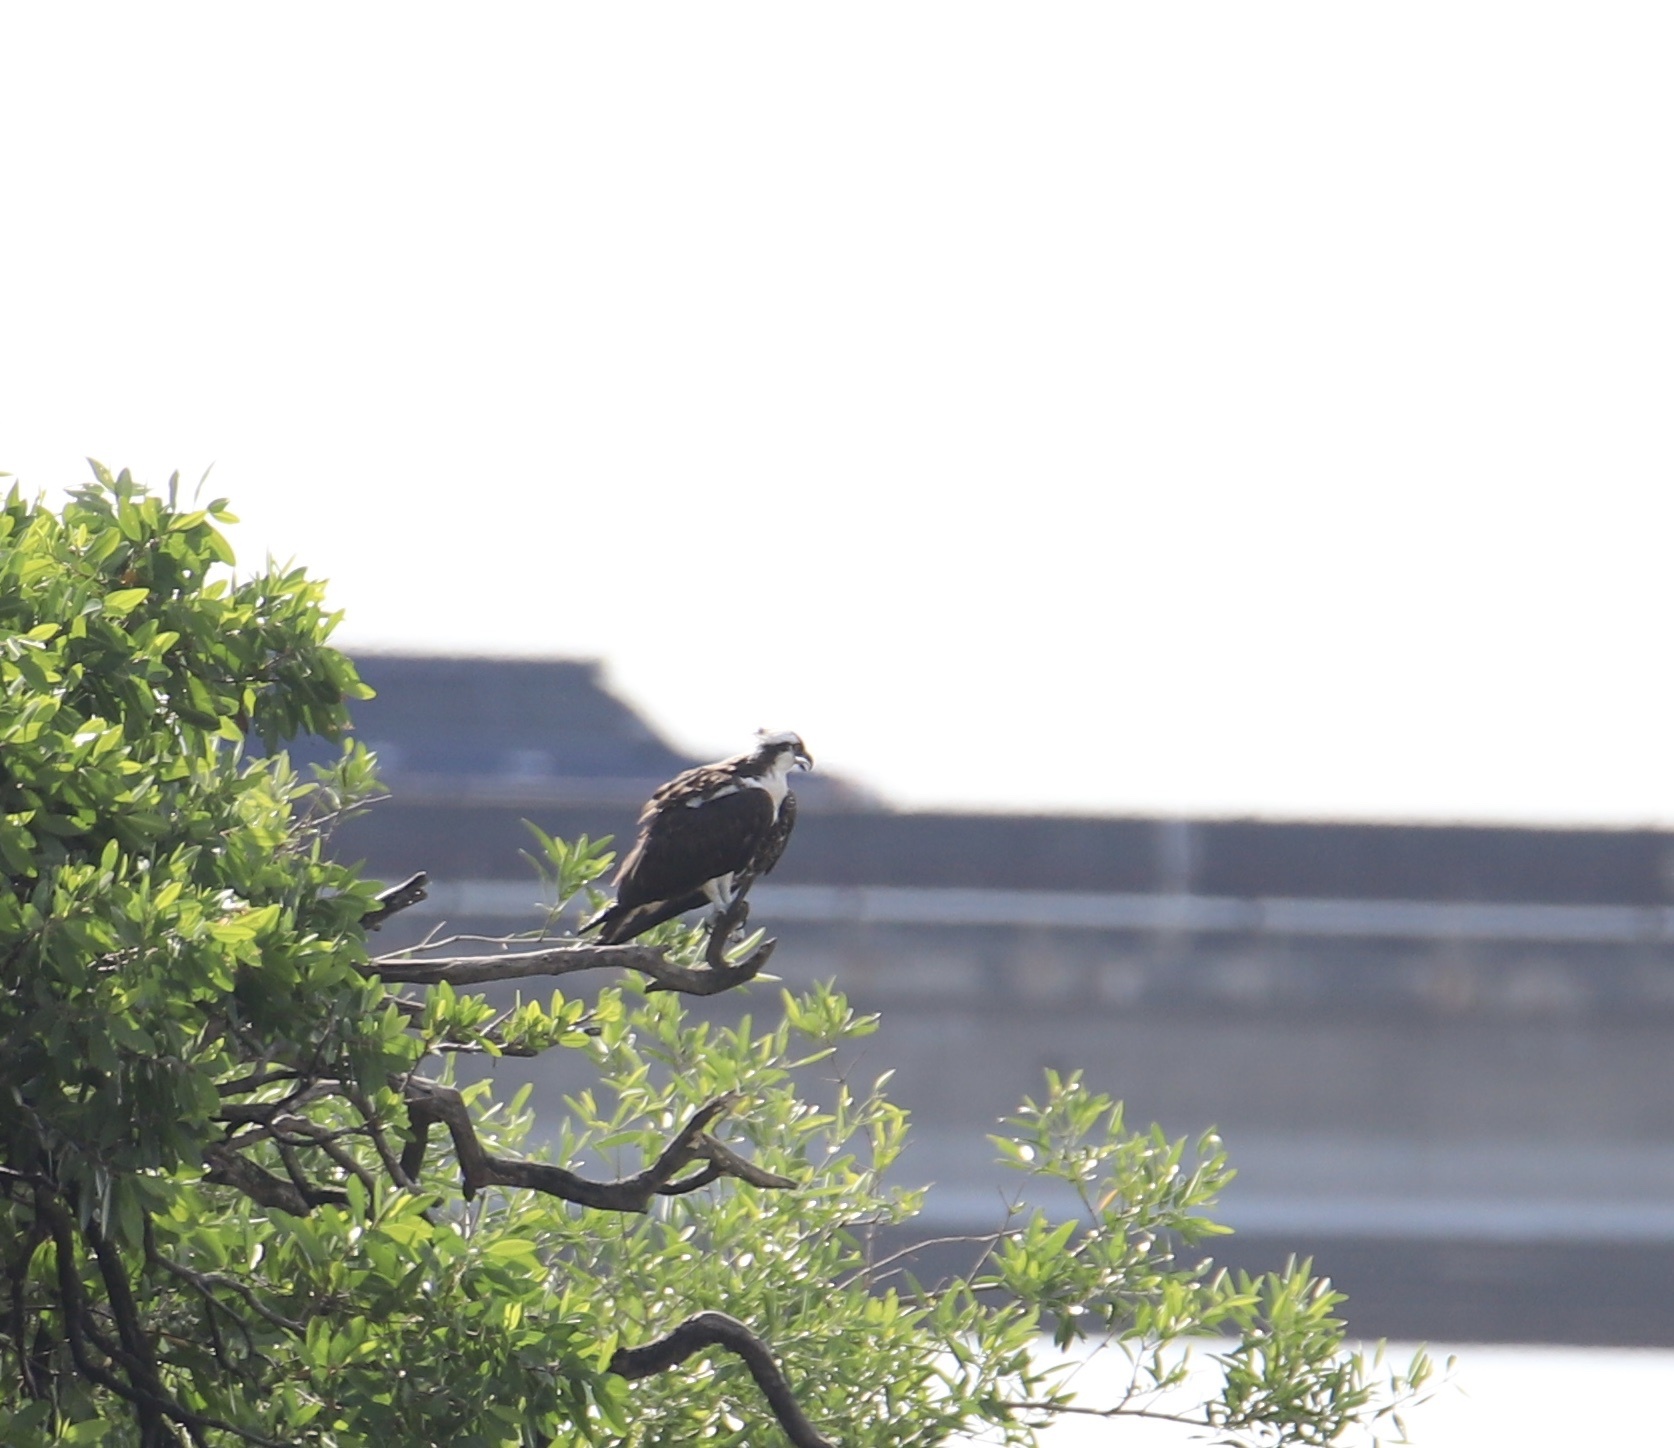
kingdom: Animalia
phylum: Chordata
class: Aves
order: Accipitriformes
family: Pandionidae
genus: Pandion
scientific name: Pandion haliaetus
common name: Osprey
